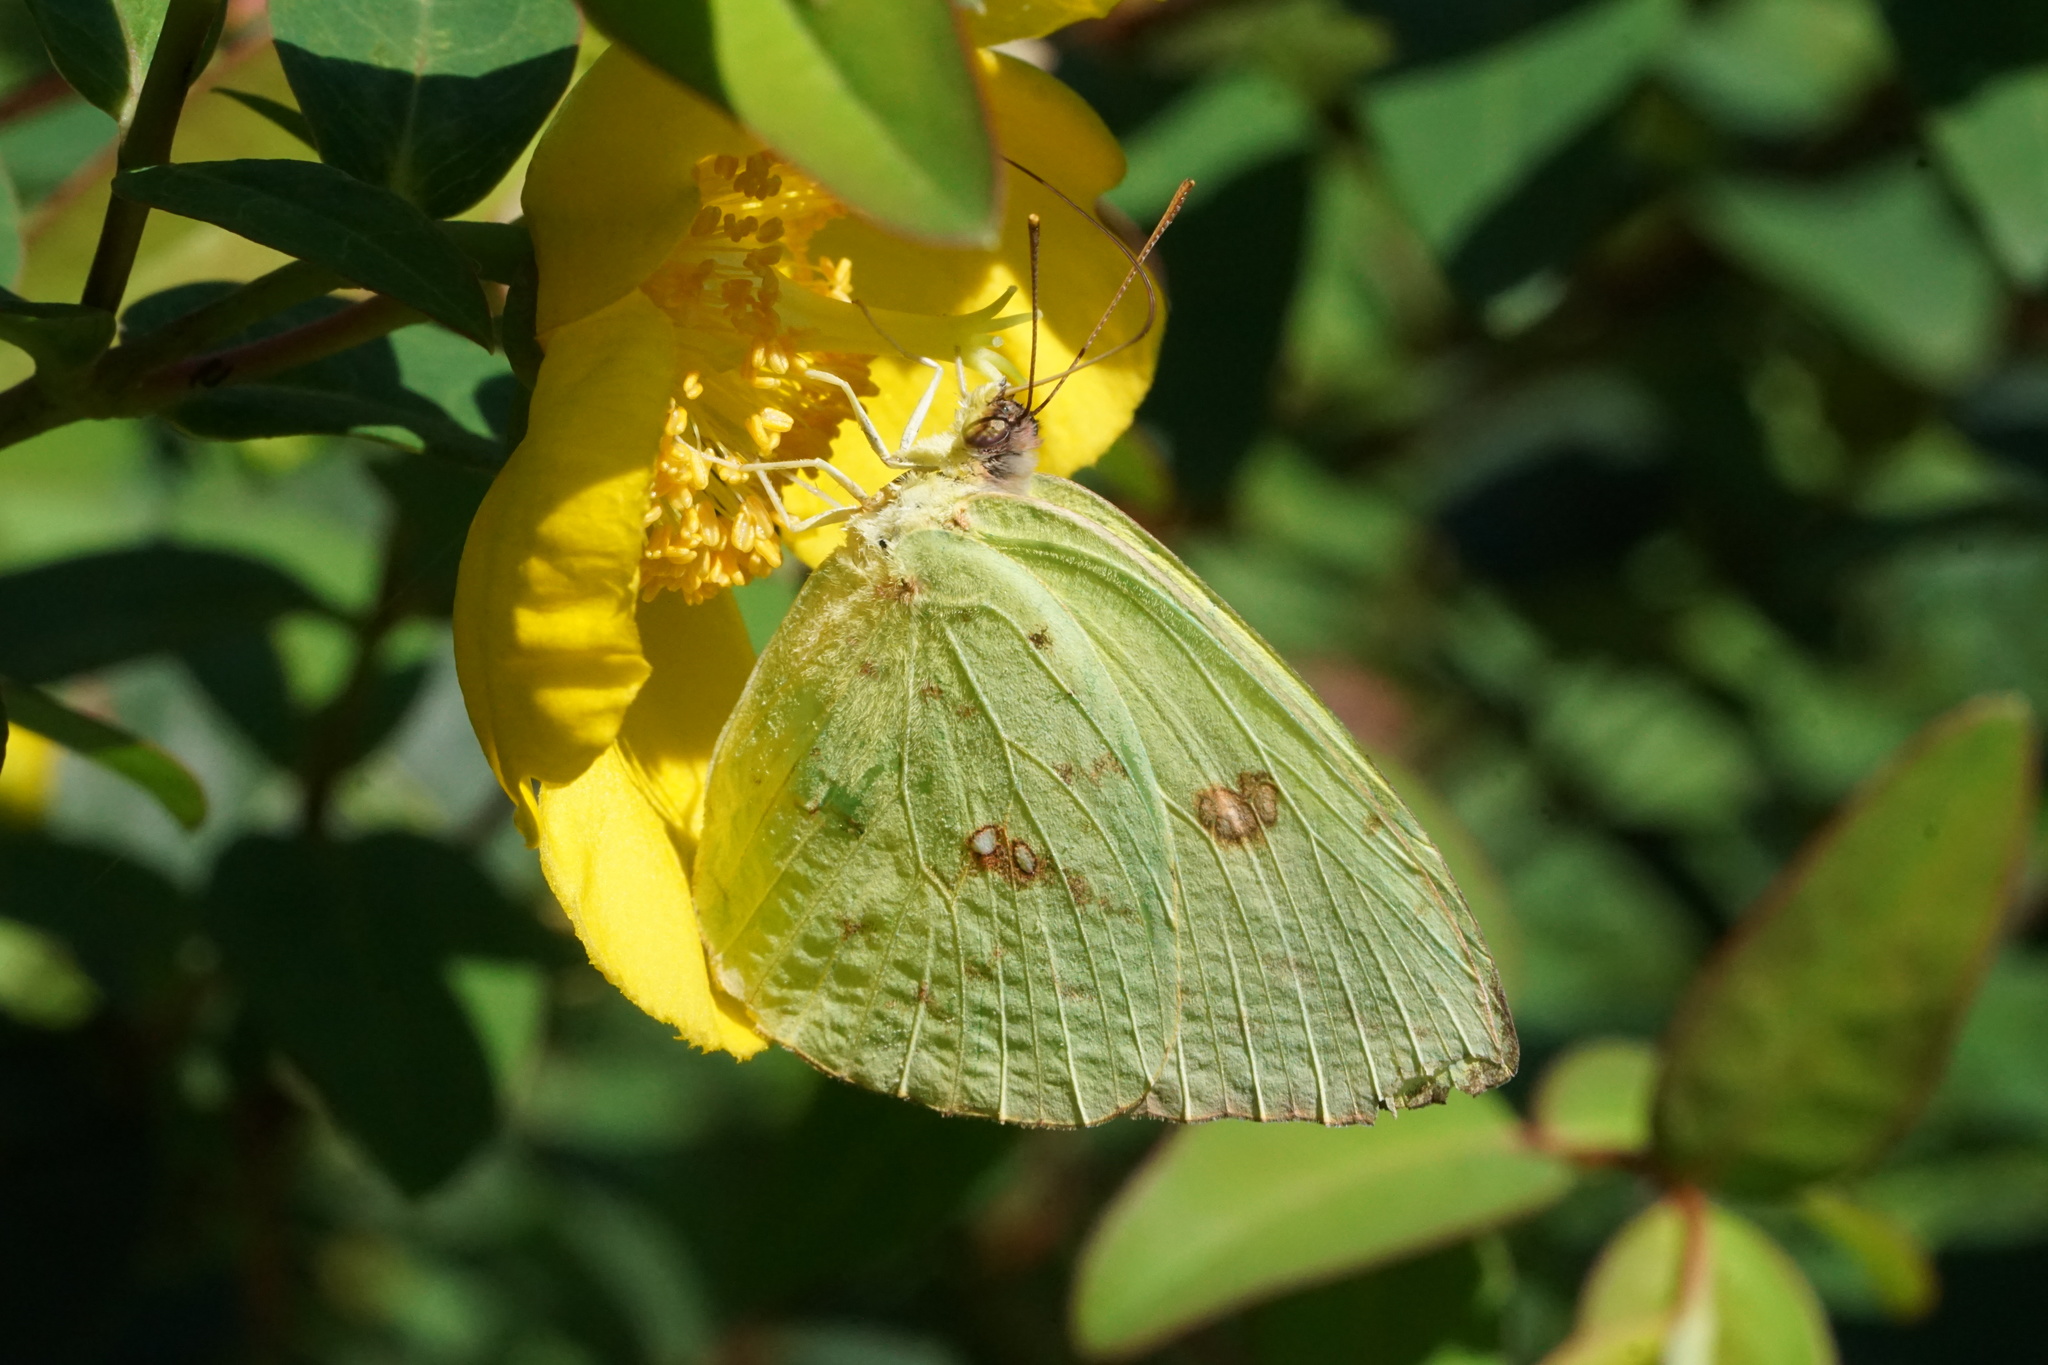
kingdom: Animalia
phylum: Arthropoda
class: Insecta
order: Lepidoptera
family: Pieridae
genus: Phoebis
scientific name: Phoebis sennae
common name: Cloudless sulphur
